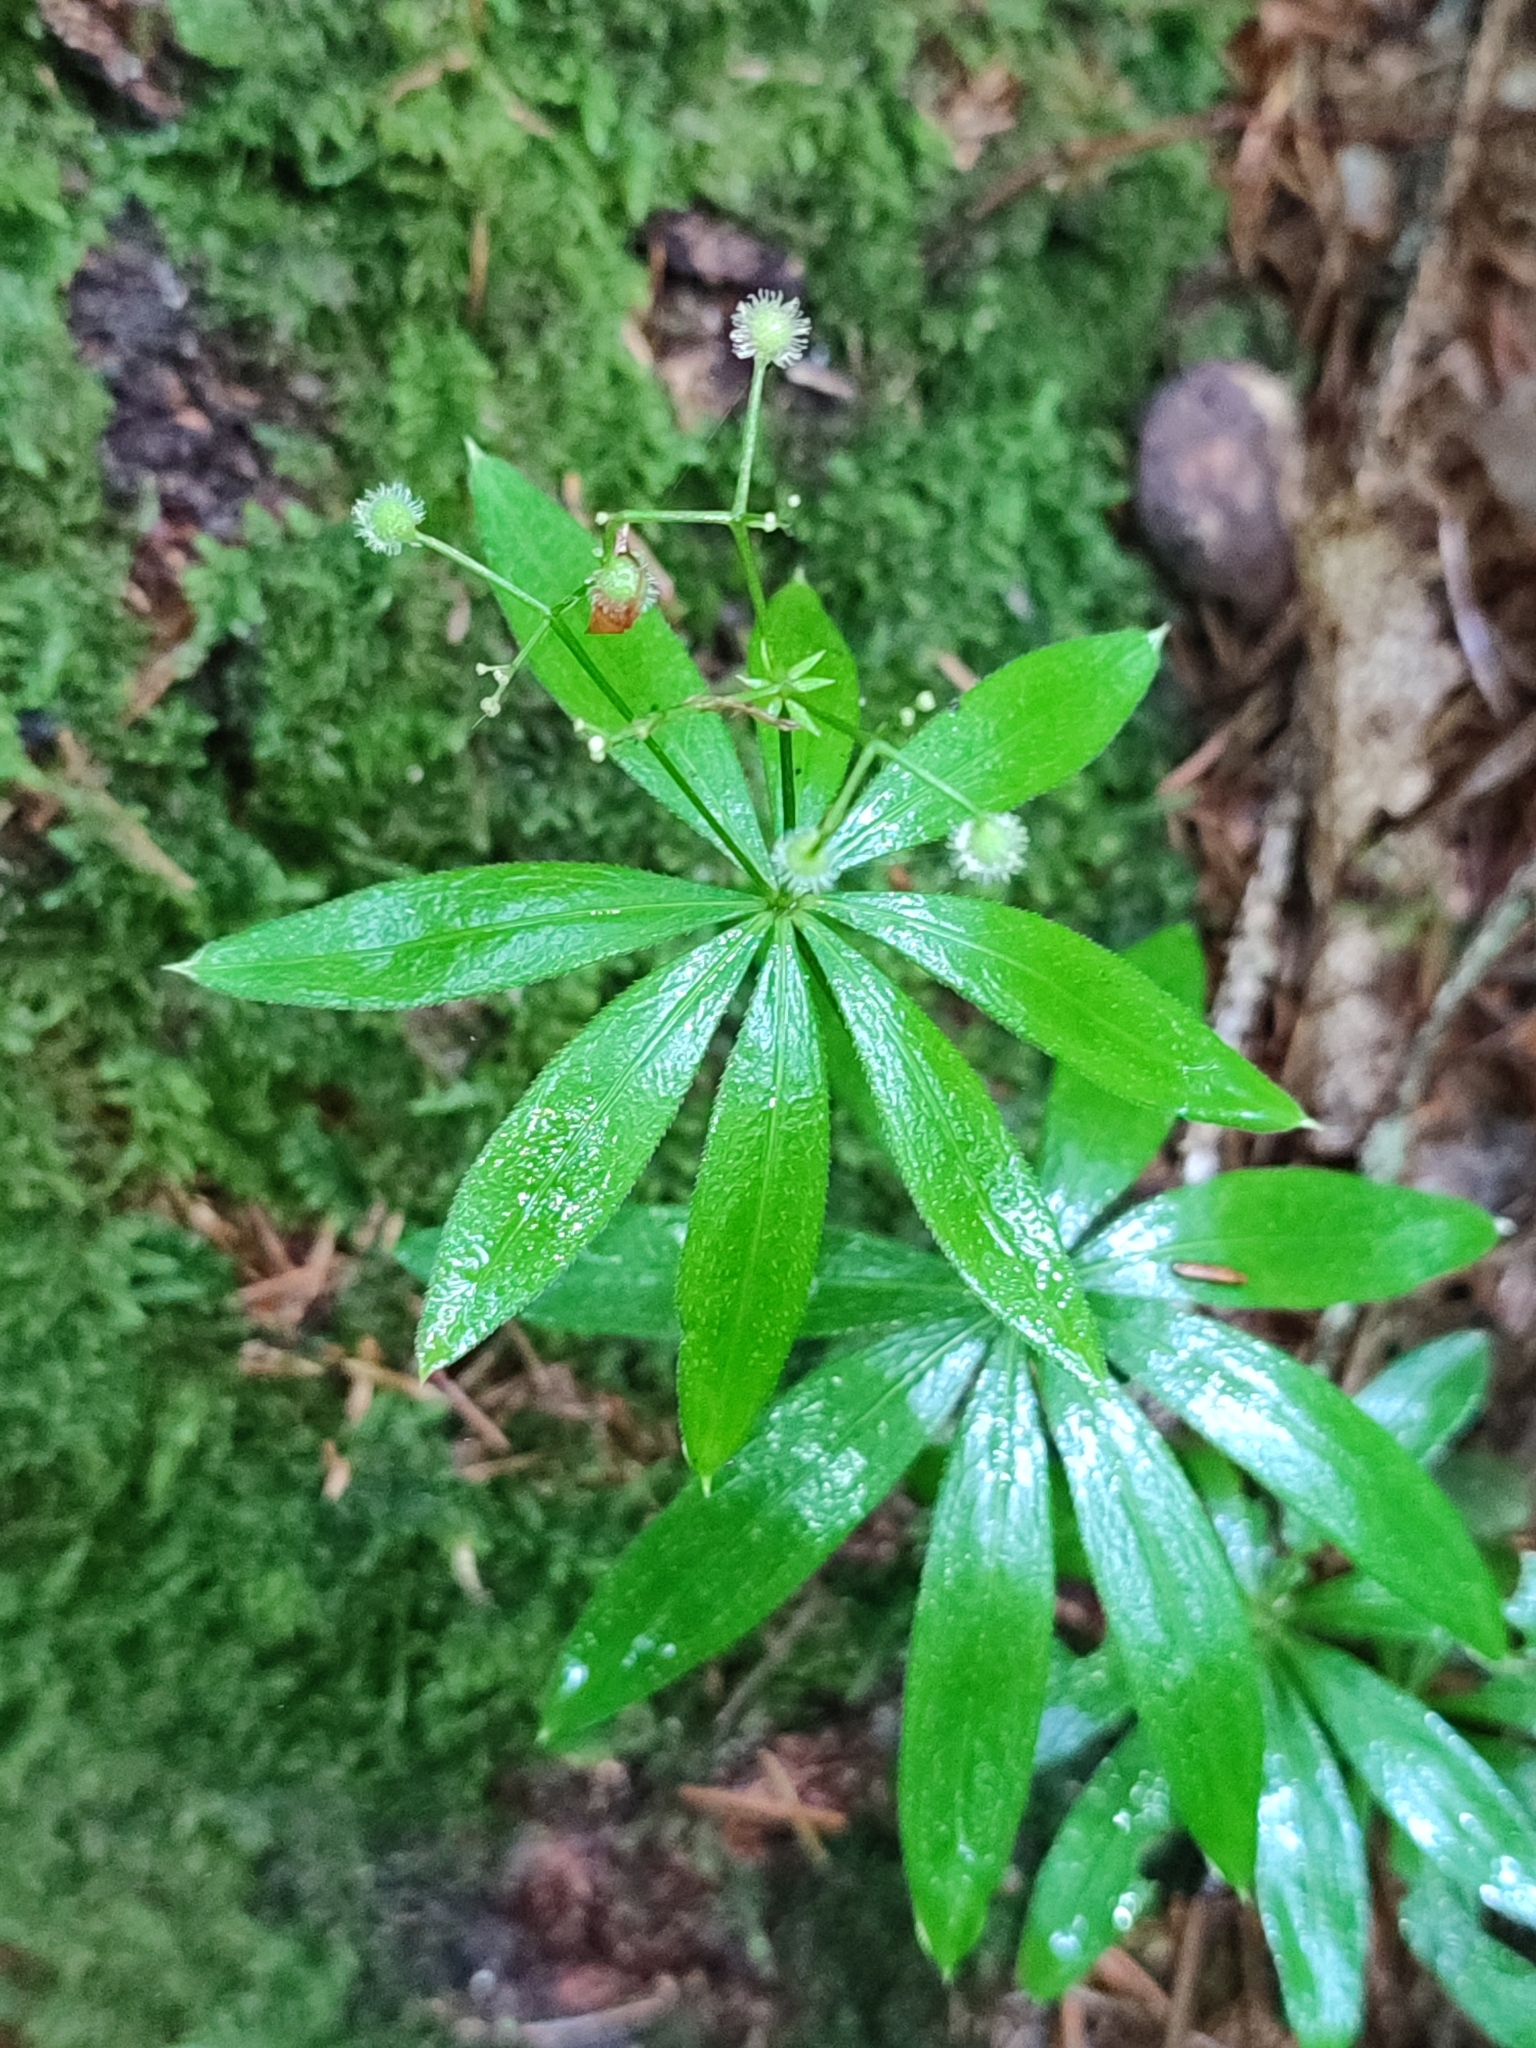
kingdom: Plantae
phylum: Tracheophyta
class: Magnoliopsida
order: Gentianales
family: Rubiaceae
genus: Galium
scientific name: Galium odoratum
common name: Sweet woodruff
